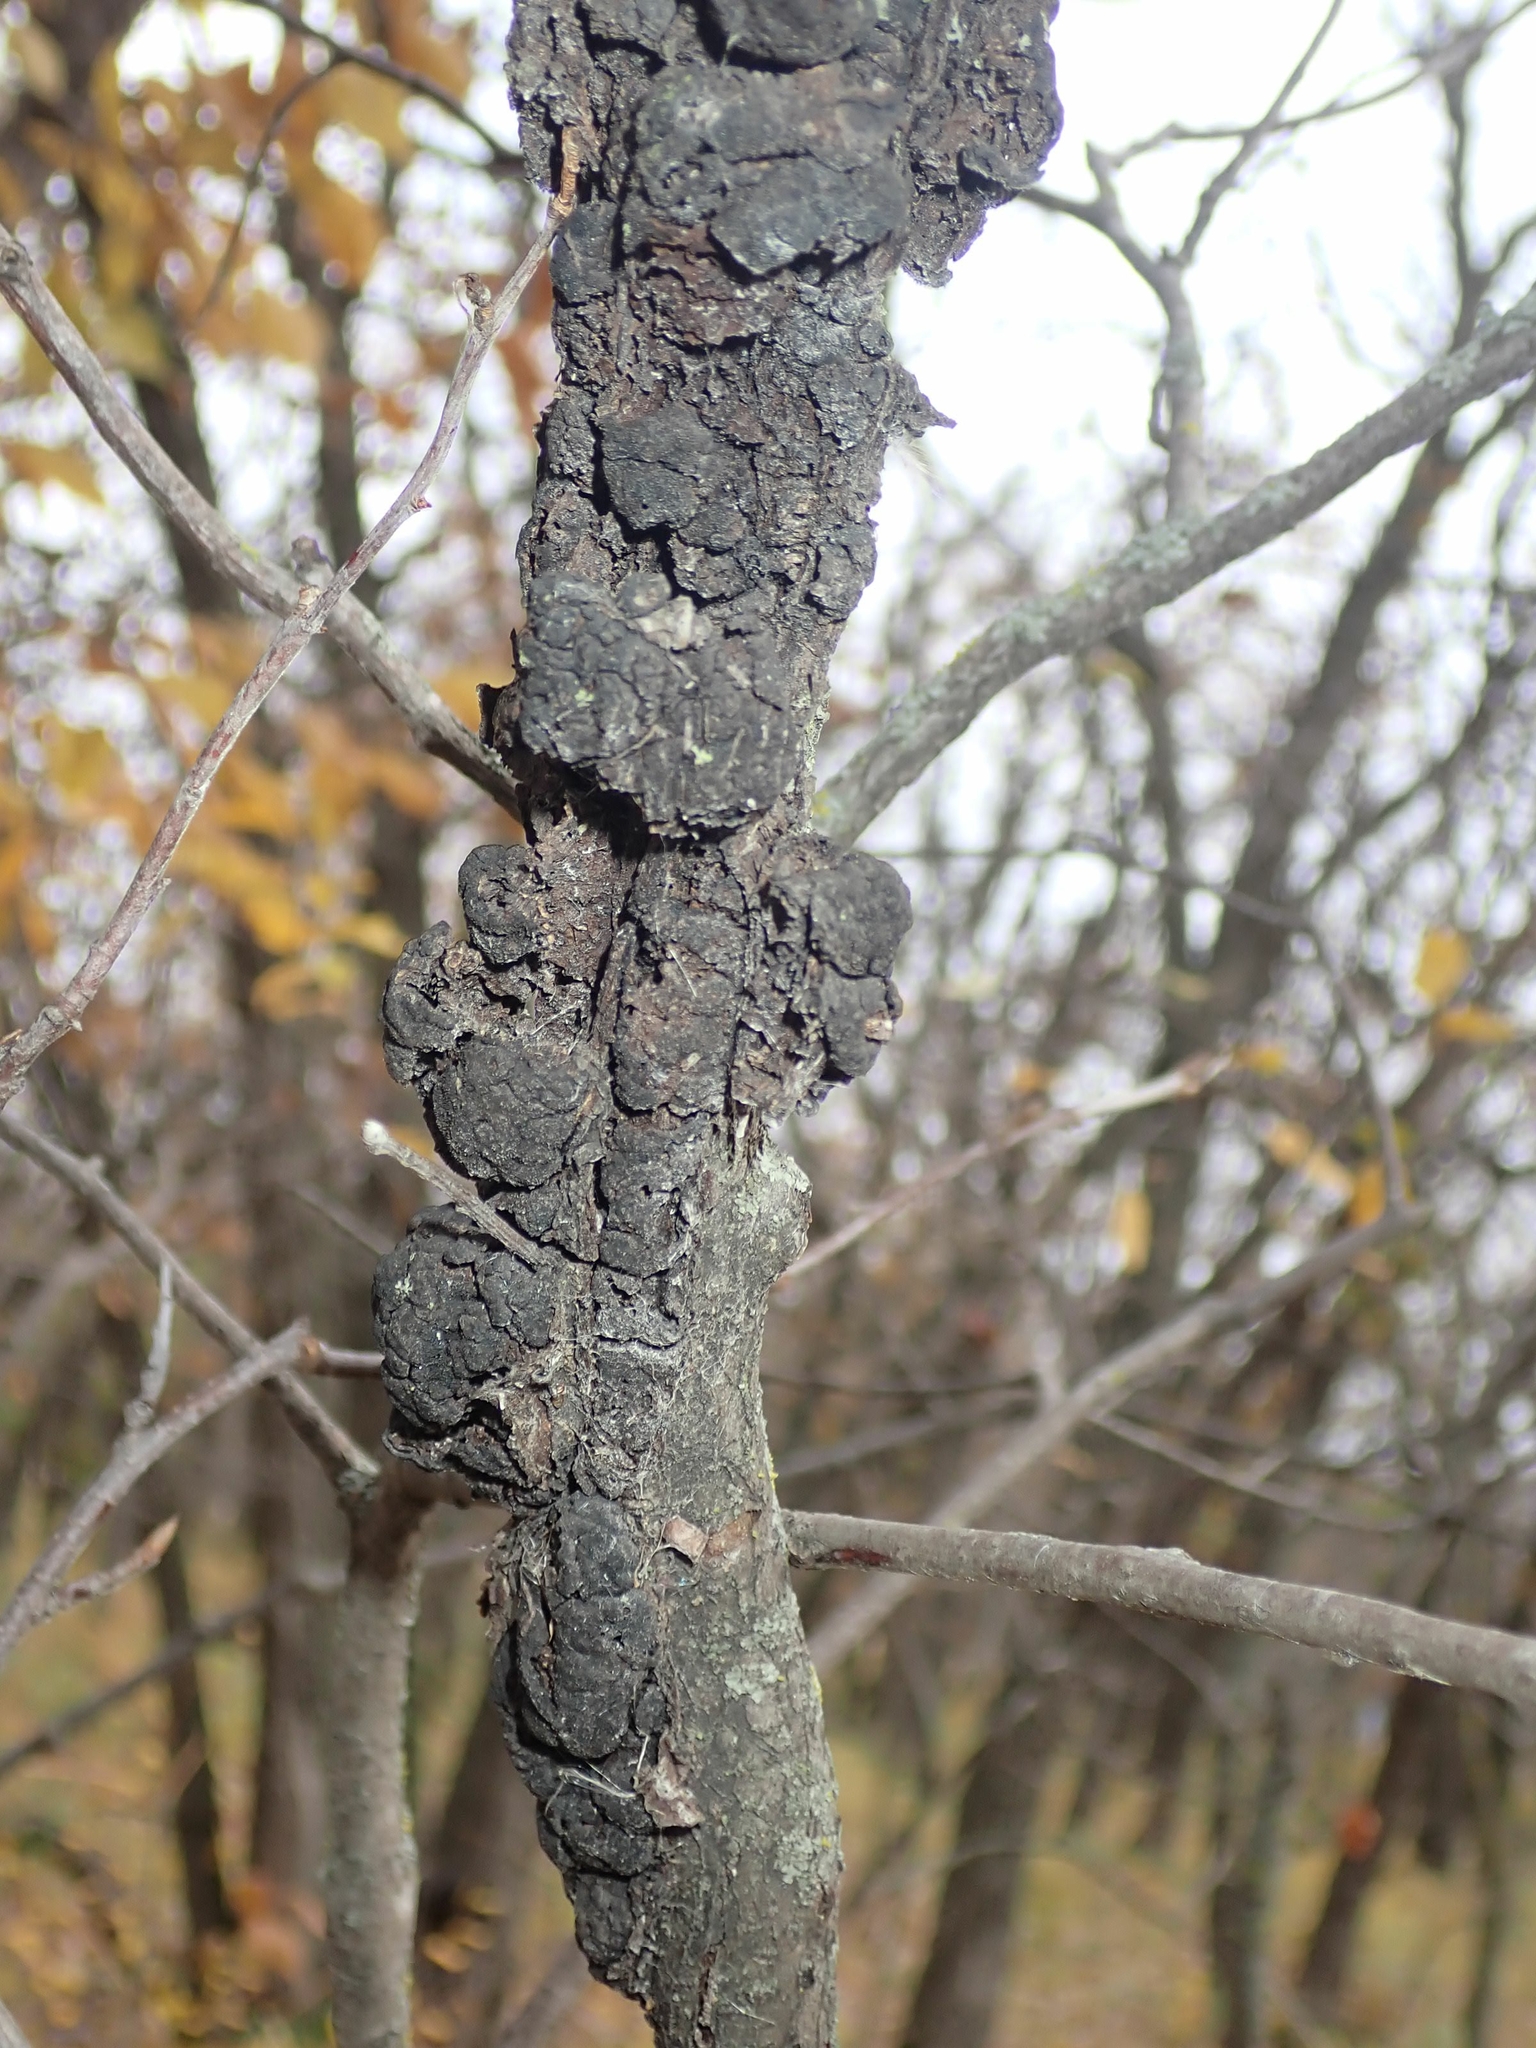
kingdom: Fungi
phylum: Ascomycota
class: Dothideomycetes
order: Venturiales
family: Venturiaceae
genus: Apiosporina
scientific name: Apiosporina morbosa
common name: Black knot
